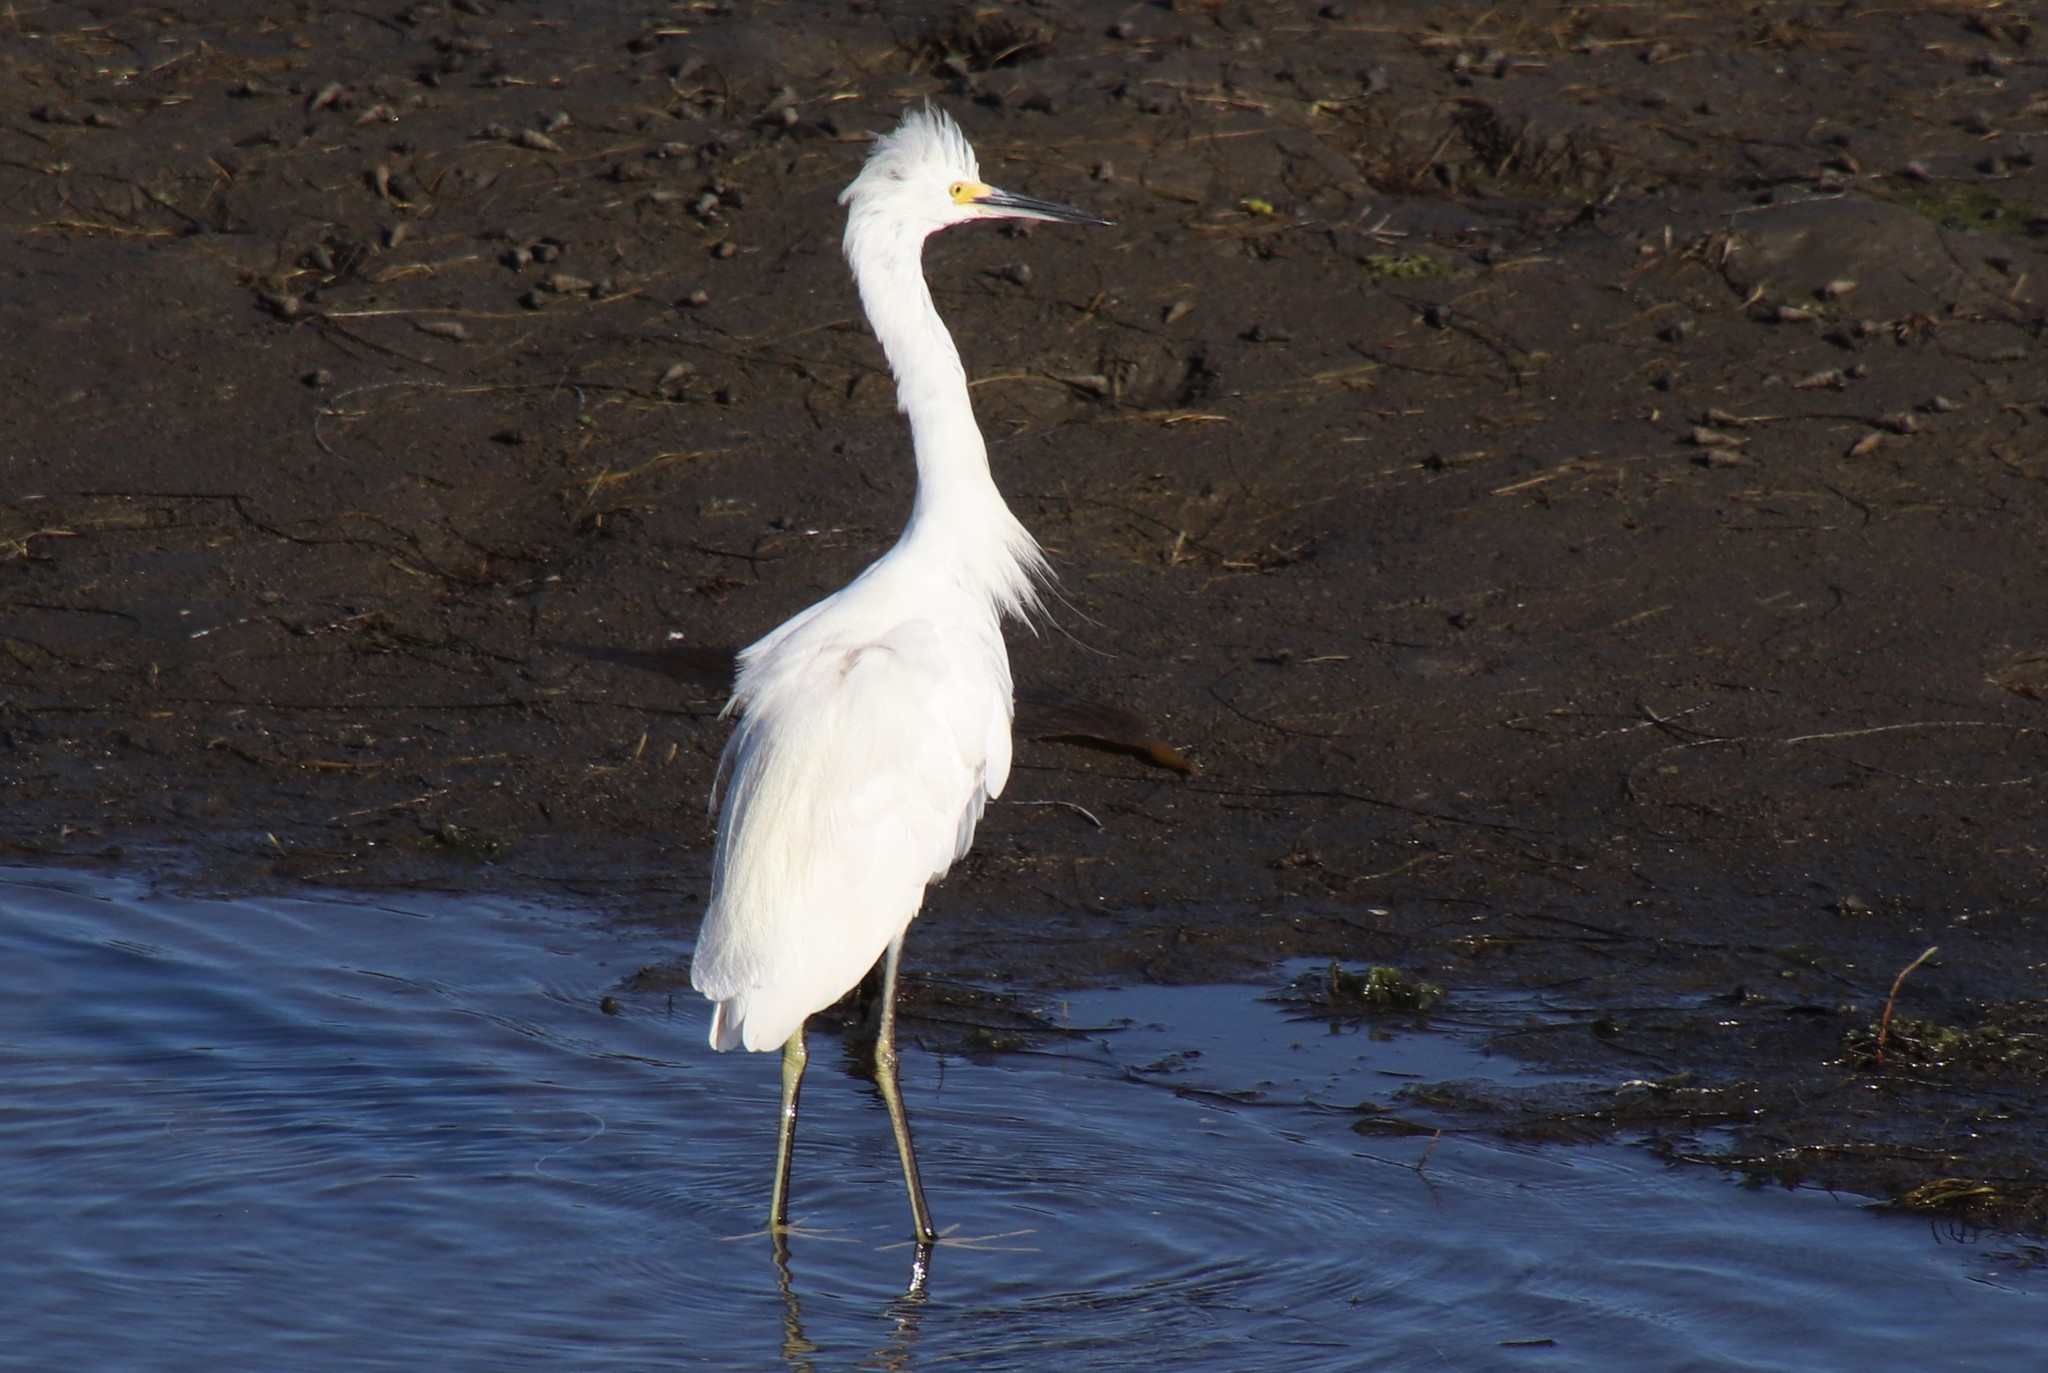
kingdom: Animalia
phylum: Chordata
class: Aves
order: Pelecaniformes
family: Ardeidae
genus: Egretta
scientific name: Egretta thula
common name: Snowy egret
